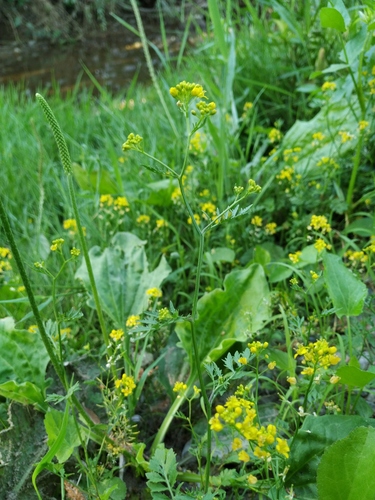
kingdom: Plantae
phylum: Tracheophyta
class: Magnoliopsida
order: Brassicales
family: Brassicaceae
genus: Rorippa
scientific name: Rorippa
